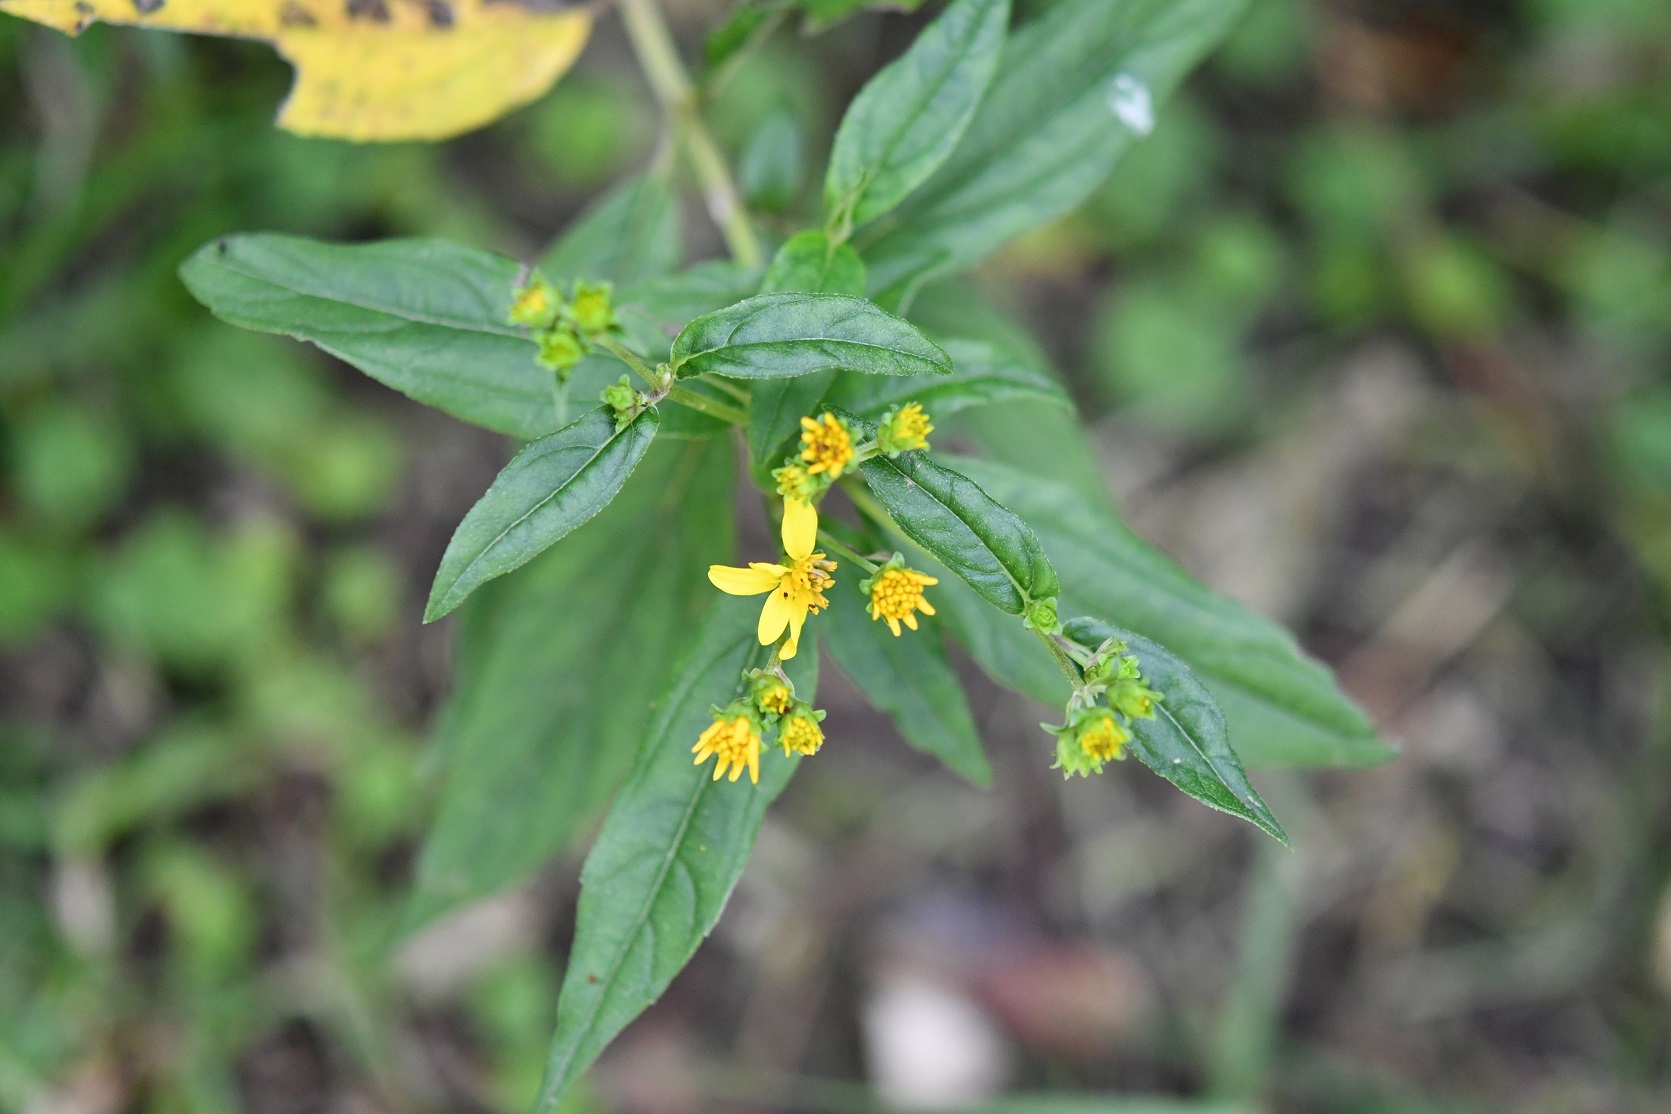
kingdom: Plantae
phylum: Tracheophyta
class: Magnoliopsida
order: Asterales
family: Asteraceae
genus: Perymenium
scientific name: Perymenium ghiesbreghtii
